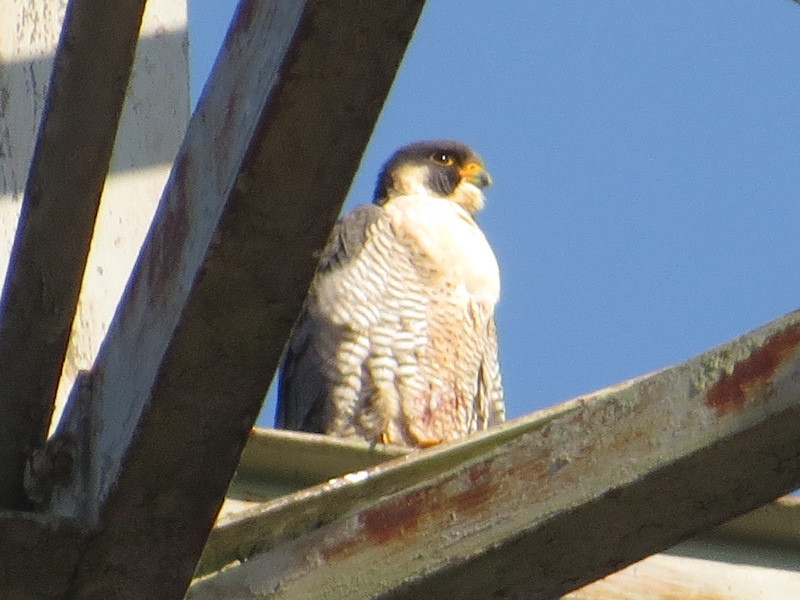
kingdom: Animalia
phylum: Chordata
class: Aves
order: Falconiformes
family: Falconidae
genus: Falco
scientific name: Falco peregrinus
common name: Peregrine falcon
